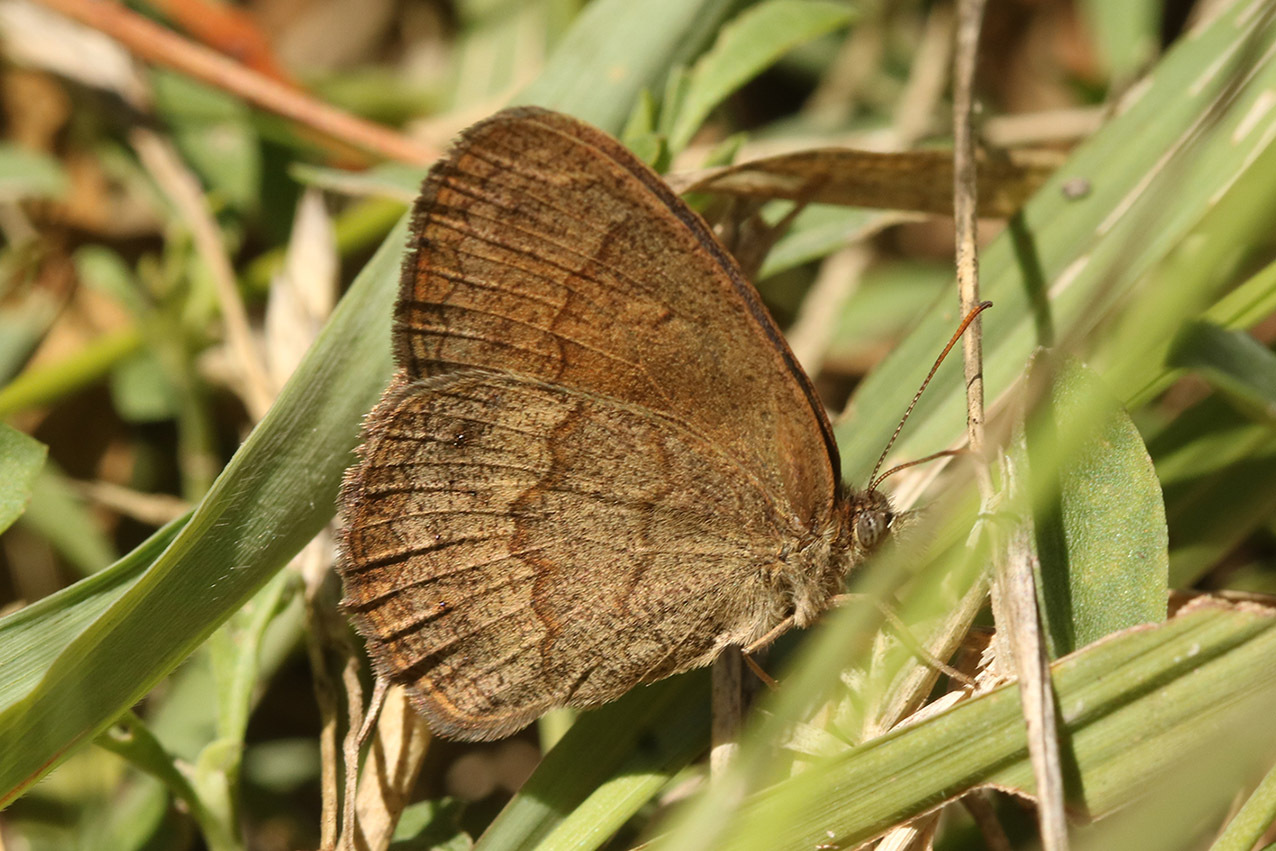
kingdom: Animalia
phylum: Arthropoda
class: Insecta
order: Lepidoptera
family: Nymphalidae
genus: Yphthimoides
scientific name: Yphthimoides celmis
